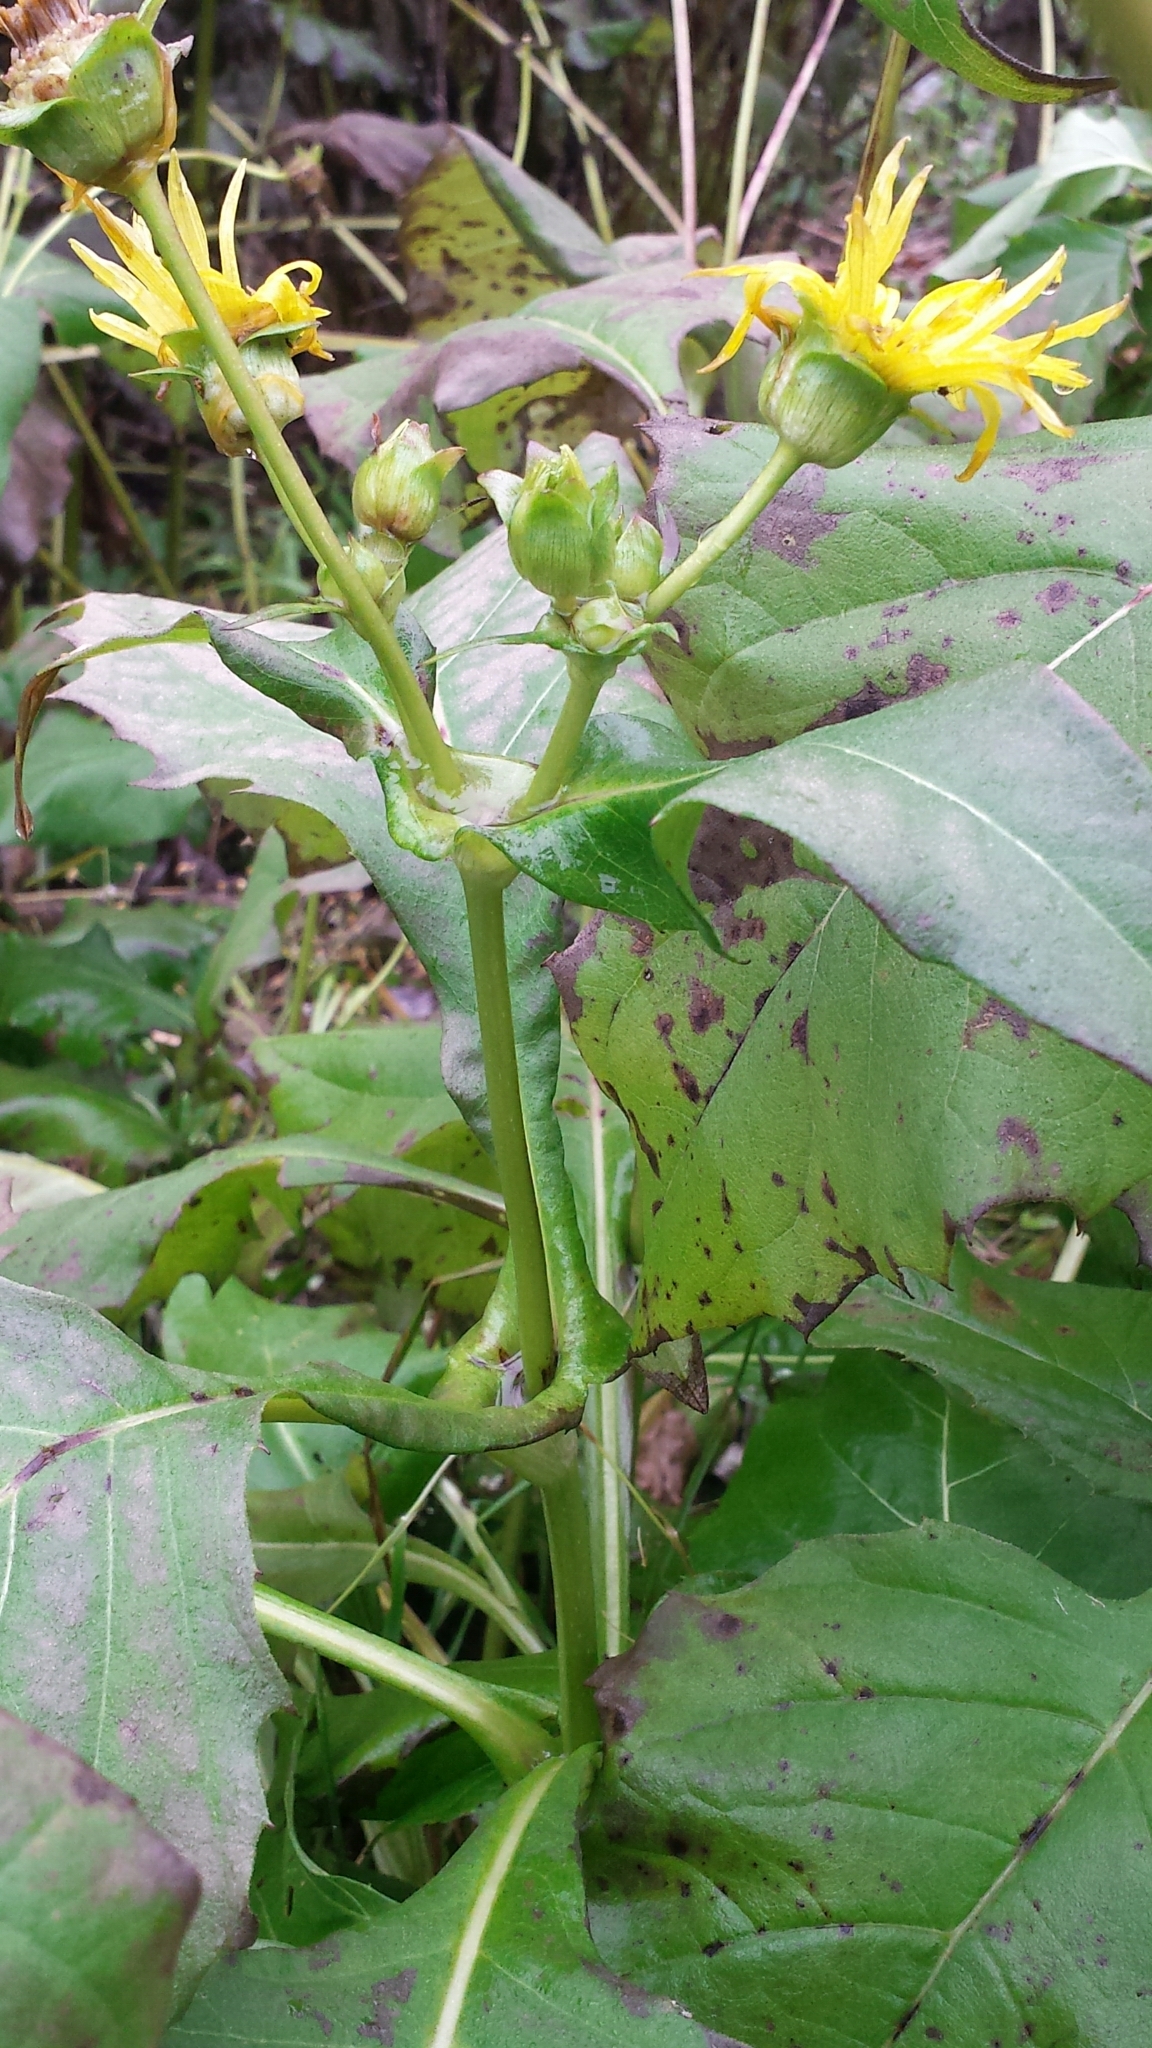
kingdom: Plantae
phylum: Tracheophyta
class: Magnoliopsida
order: Asterales
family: Asteraceae
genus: Silphium
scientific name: Silphium perfoliatum
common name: Cup-plant
